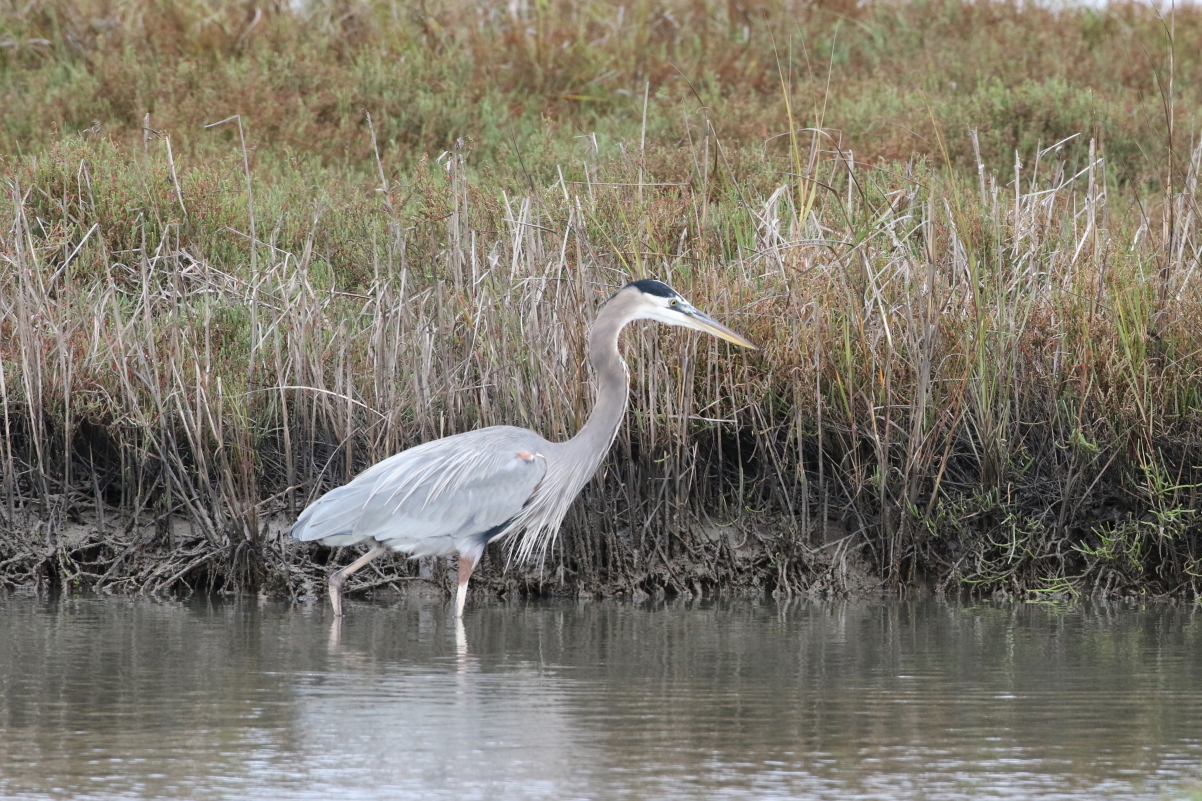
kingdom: Animalia
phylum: Chordata
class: Aves
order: Pelecaniformes
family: Ardeidae
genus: Ardea
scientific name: Ardea herodias
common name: Great blue heron
